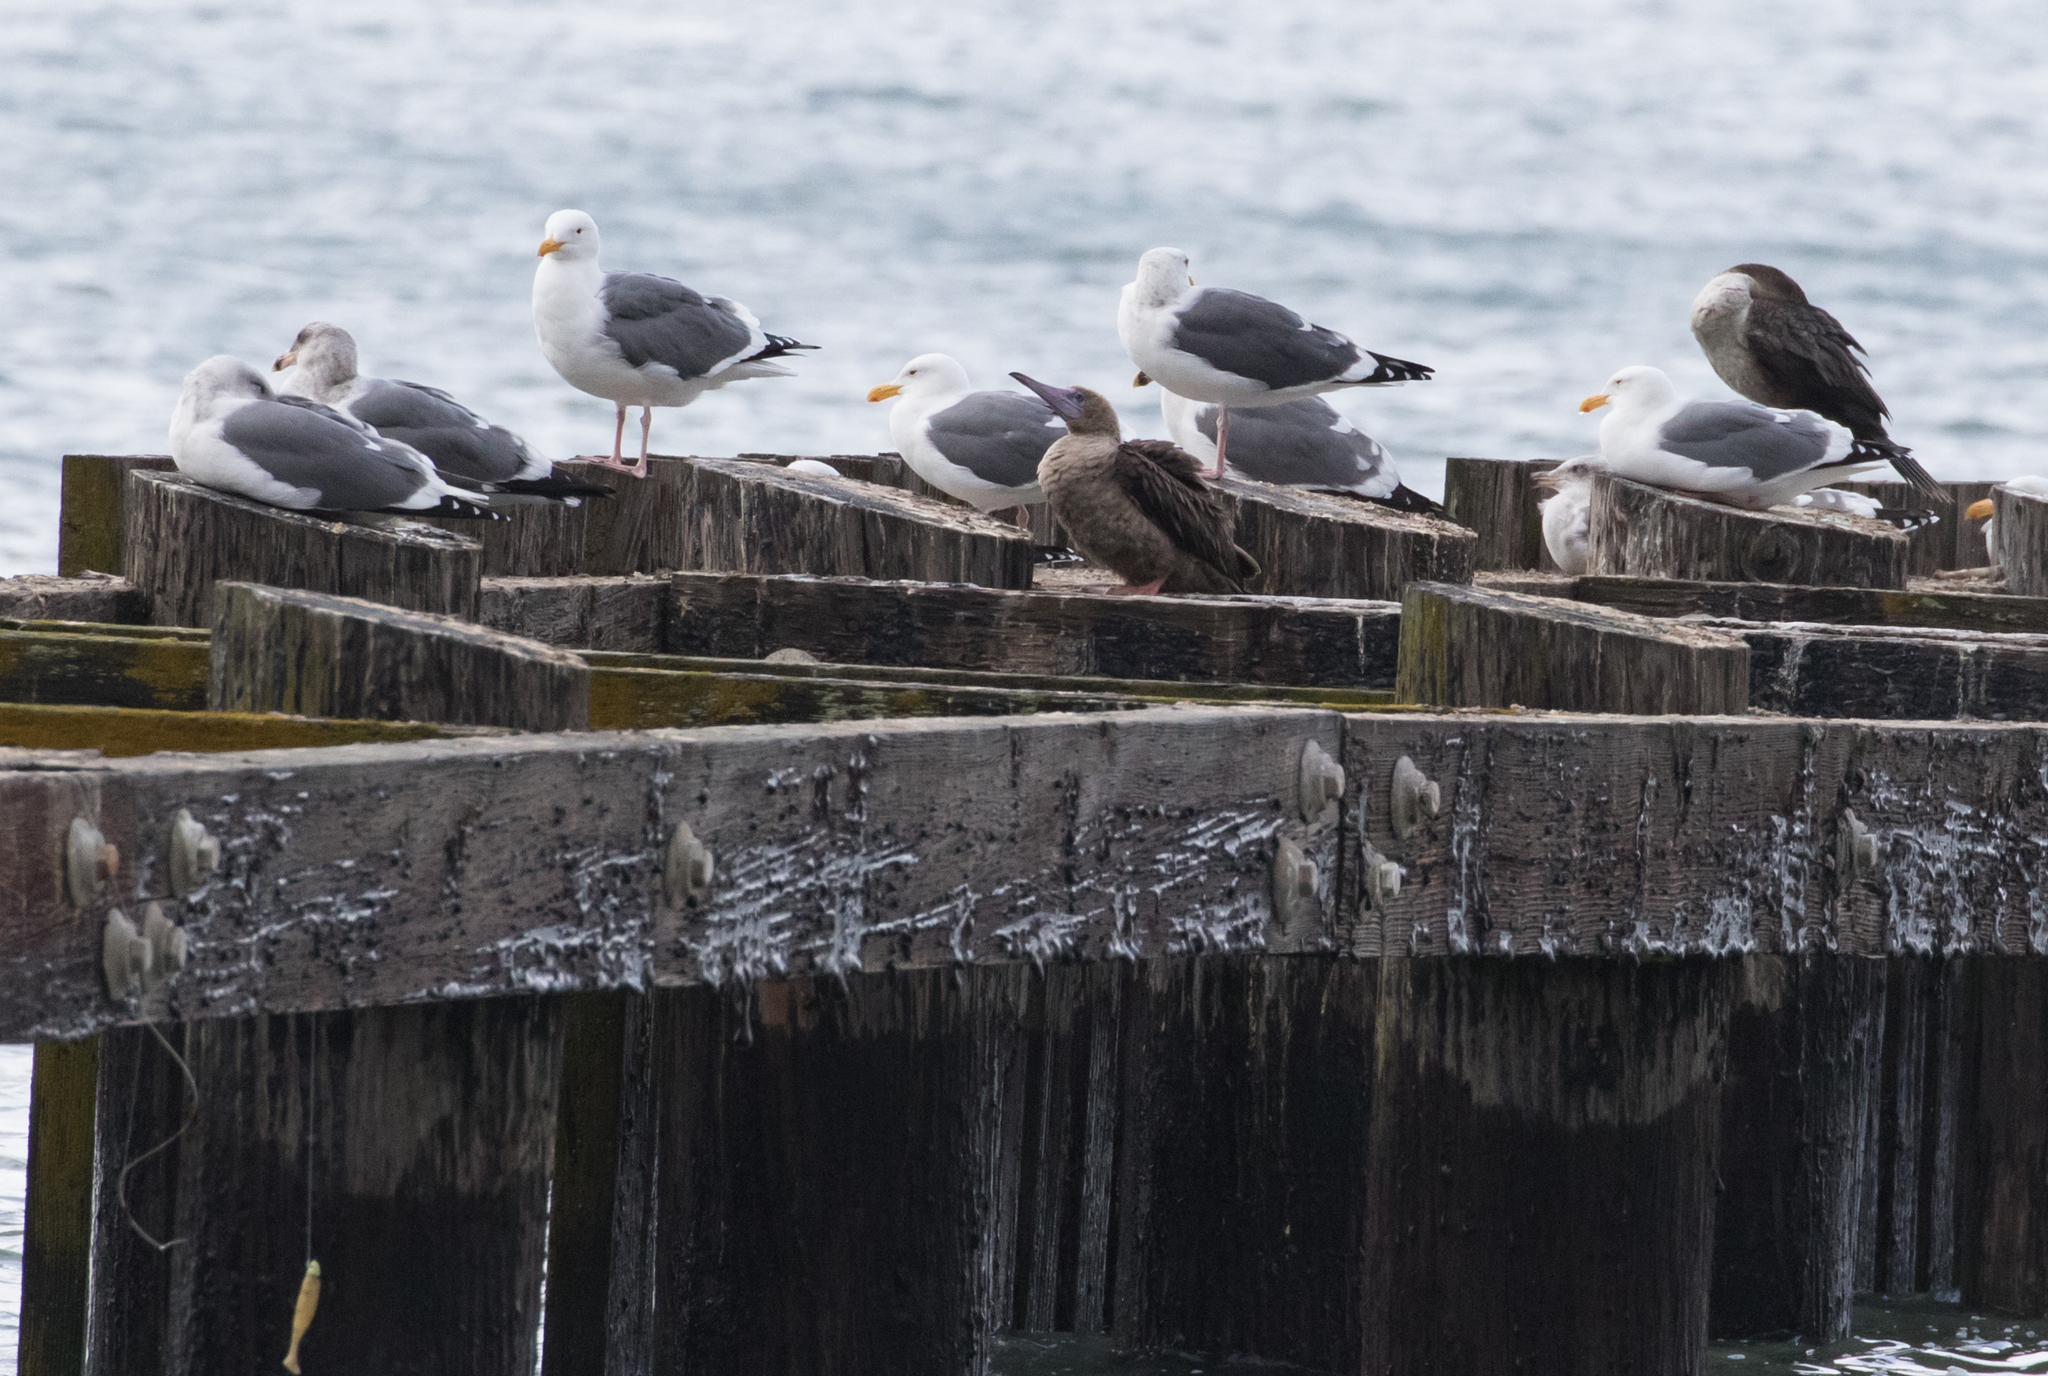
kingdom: Animalia
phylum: Chordata
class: Aves
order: Suliformes
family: Sulidae
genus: Sula
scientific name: Sula sula
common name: Red-footed booby
